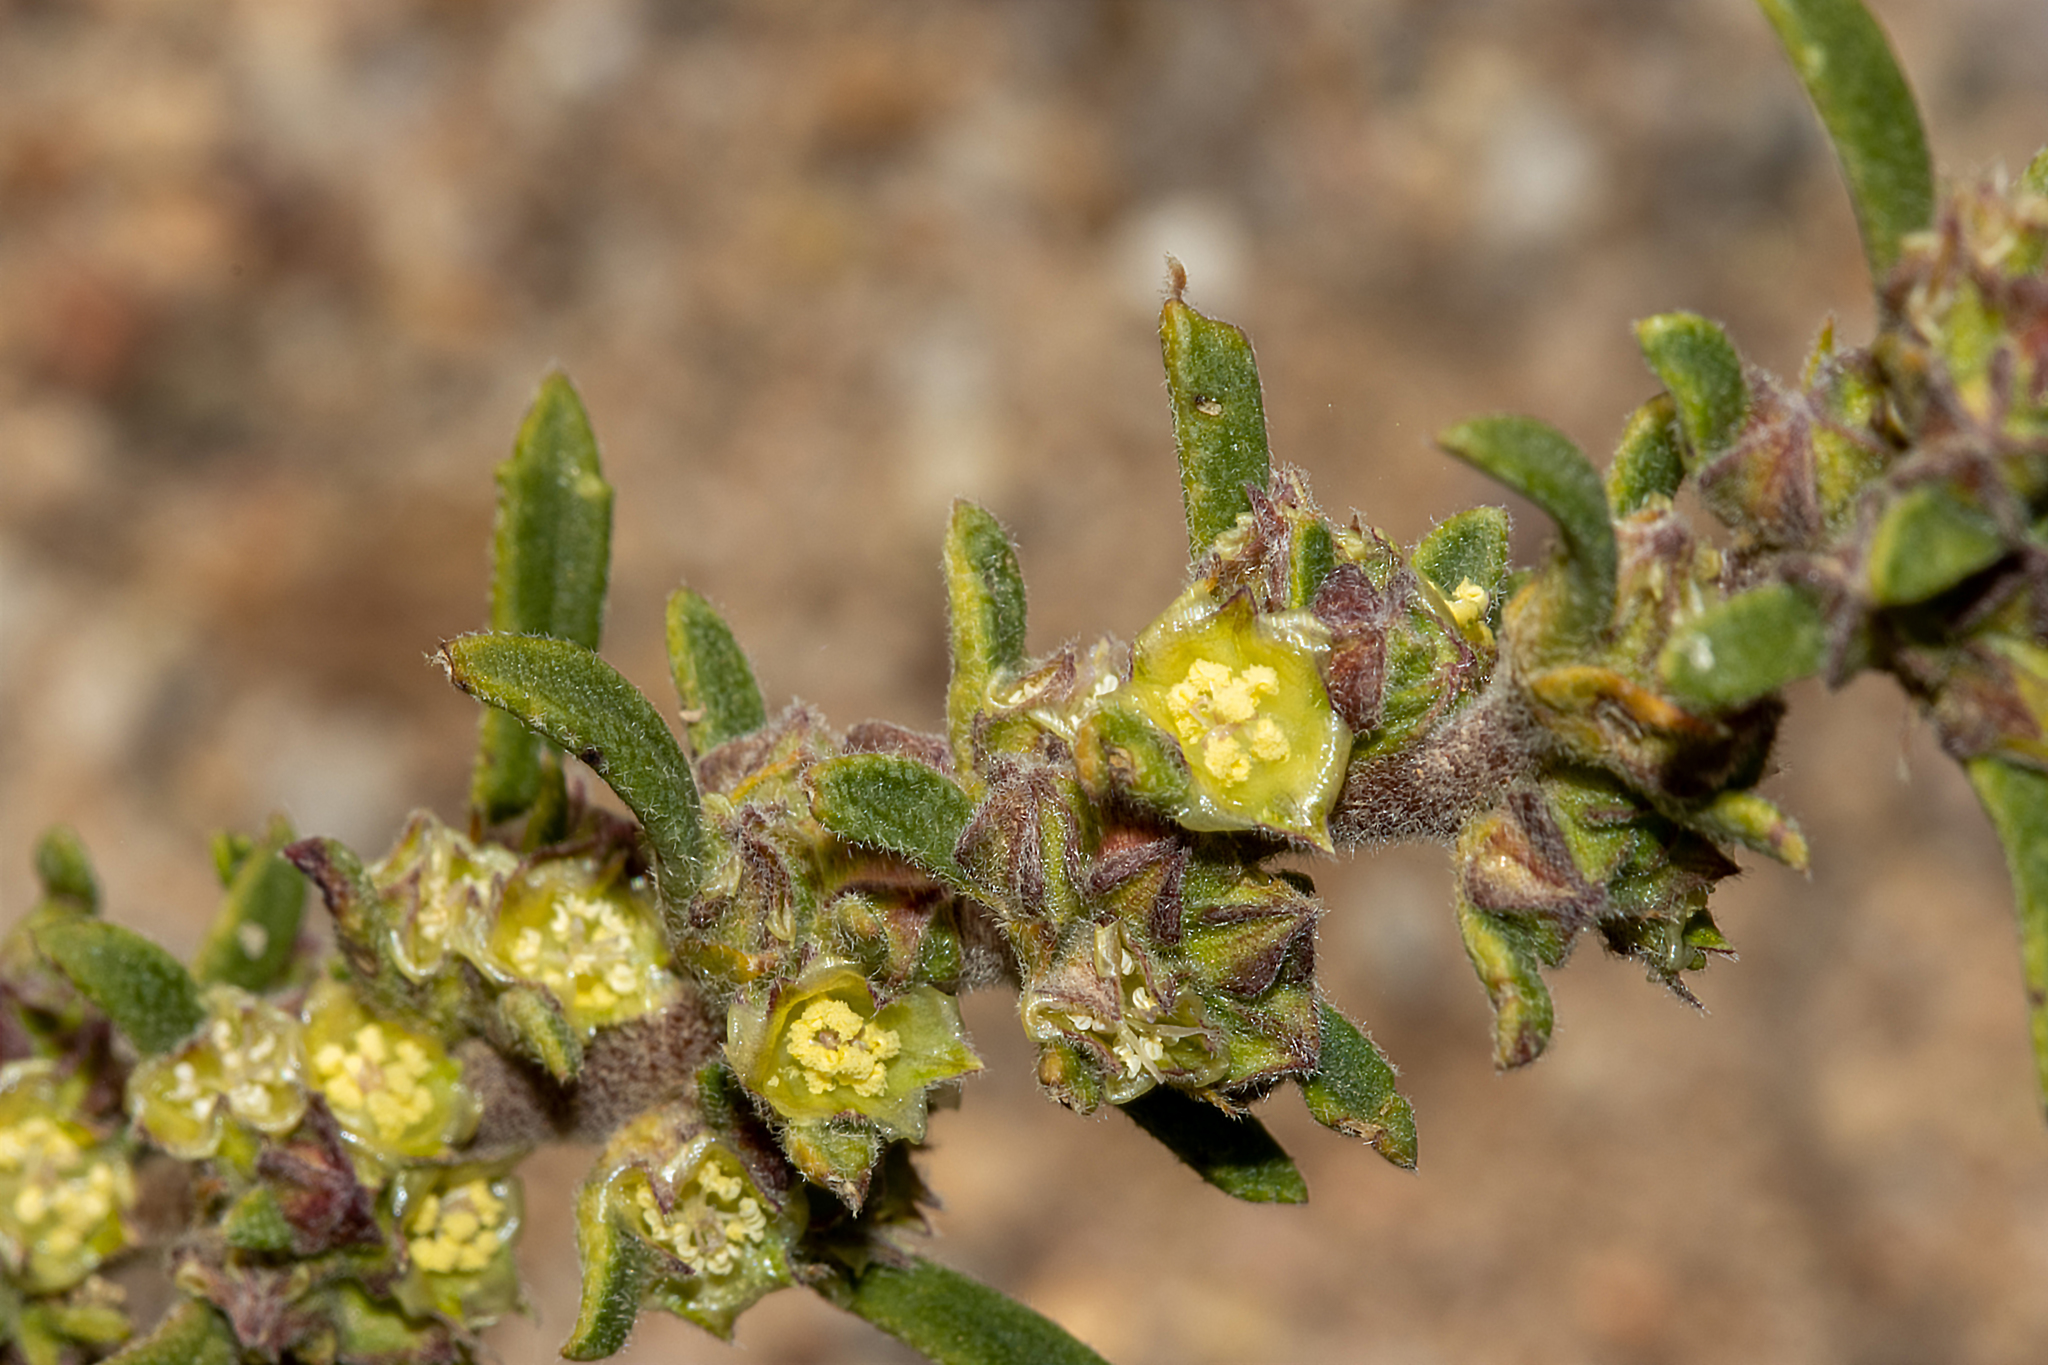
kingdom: Plantae
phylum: Tracheophyta
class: Magnoliopsida
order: Malvales
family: Malvaceae
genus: Lawrencia
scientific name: Lawrencia glomerata
